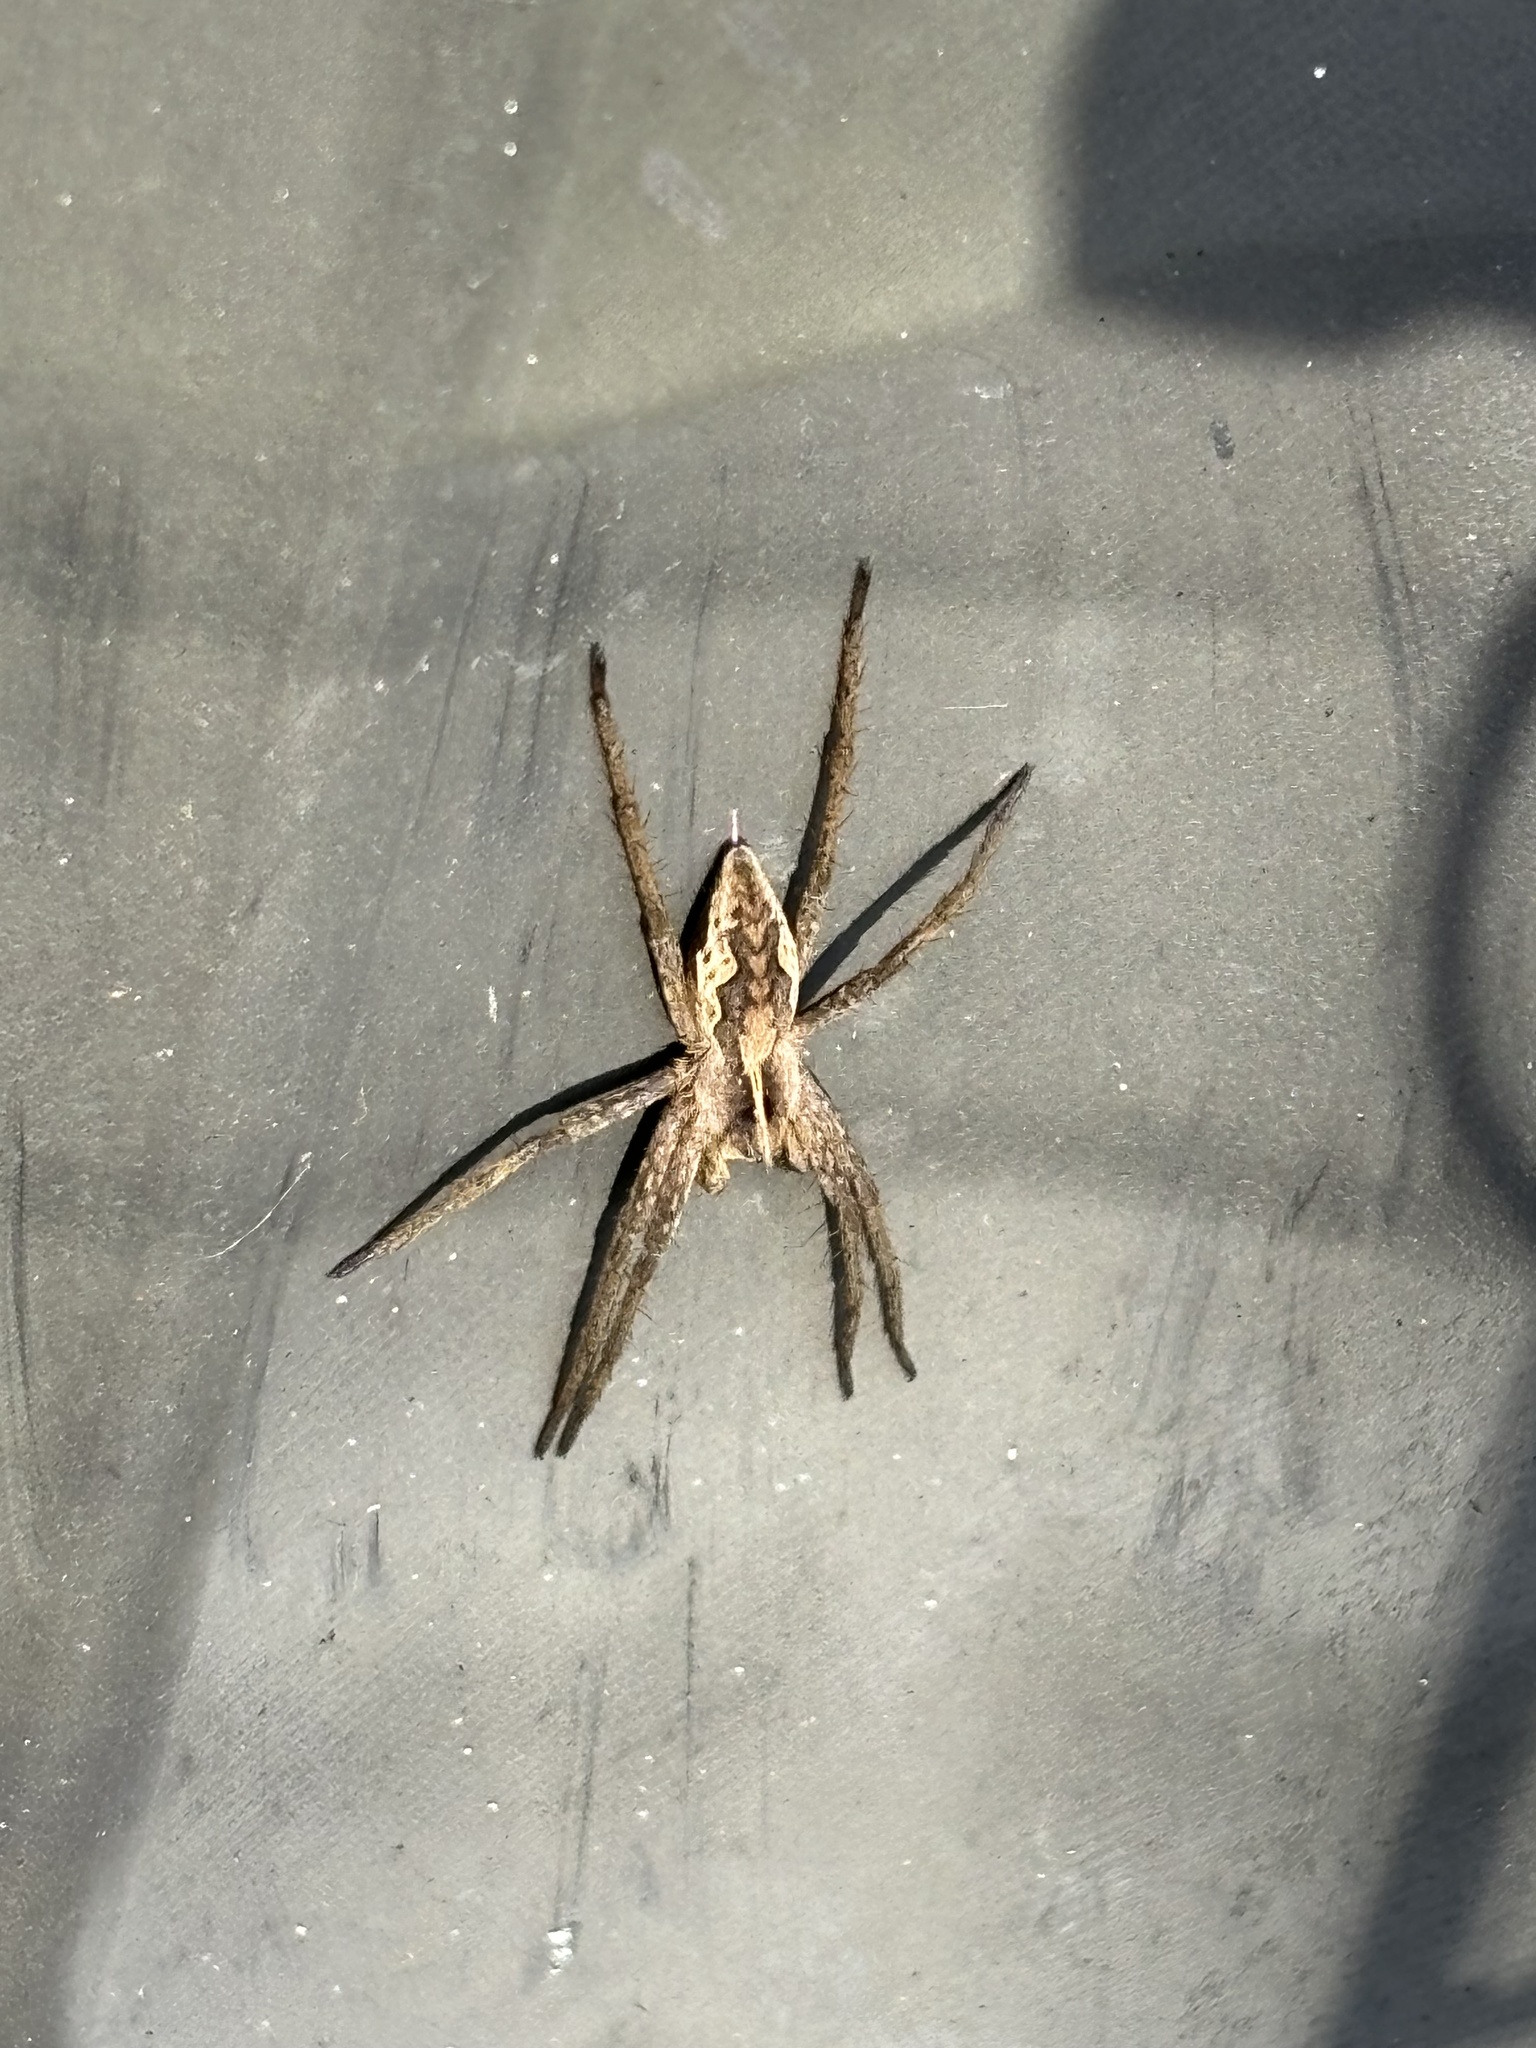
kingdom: Animalia
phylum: Arthropoda
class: Arachnida
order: Araneae
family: Pisauridae
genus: Pisaura
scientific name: Pisaura mirabilis
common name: Tent spider
